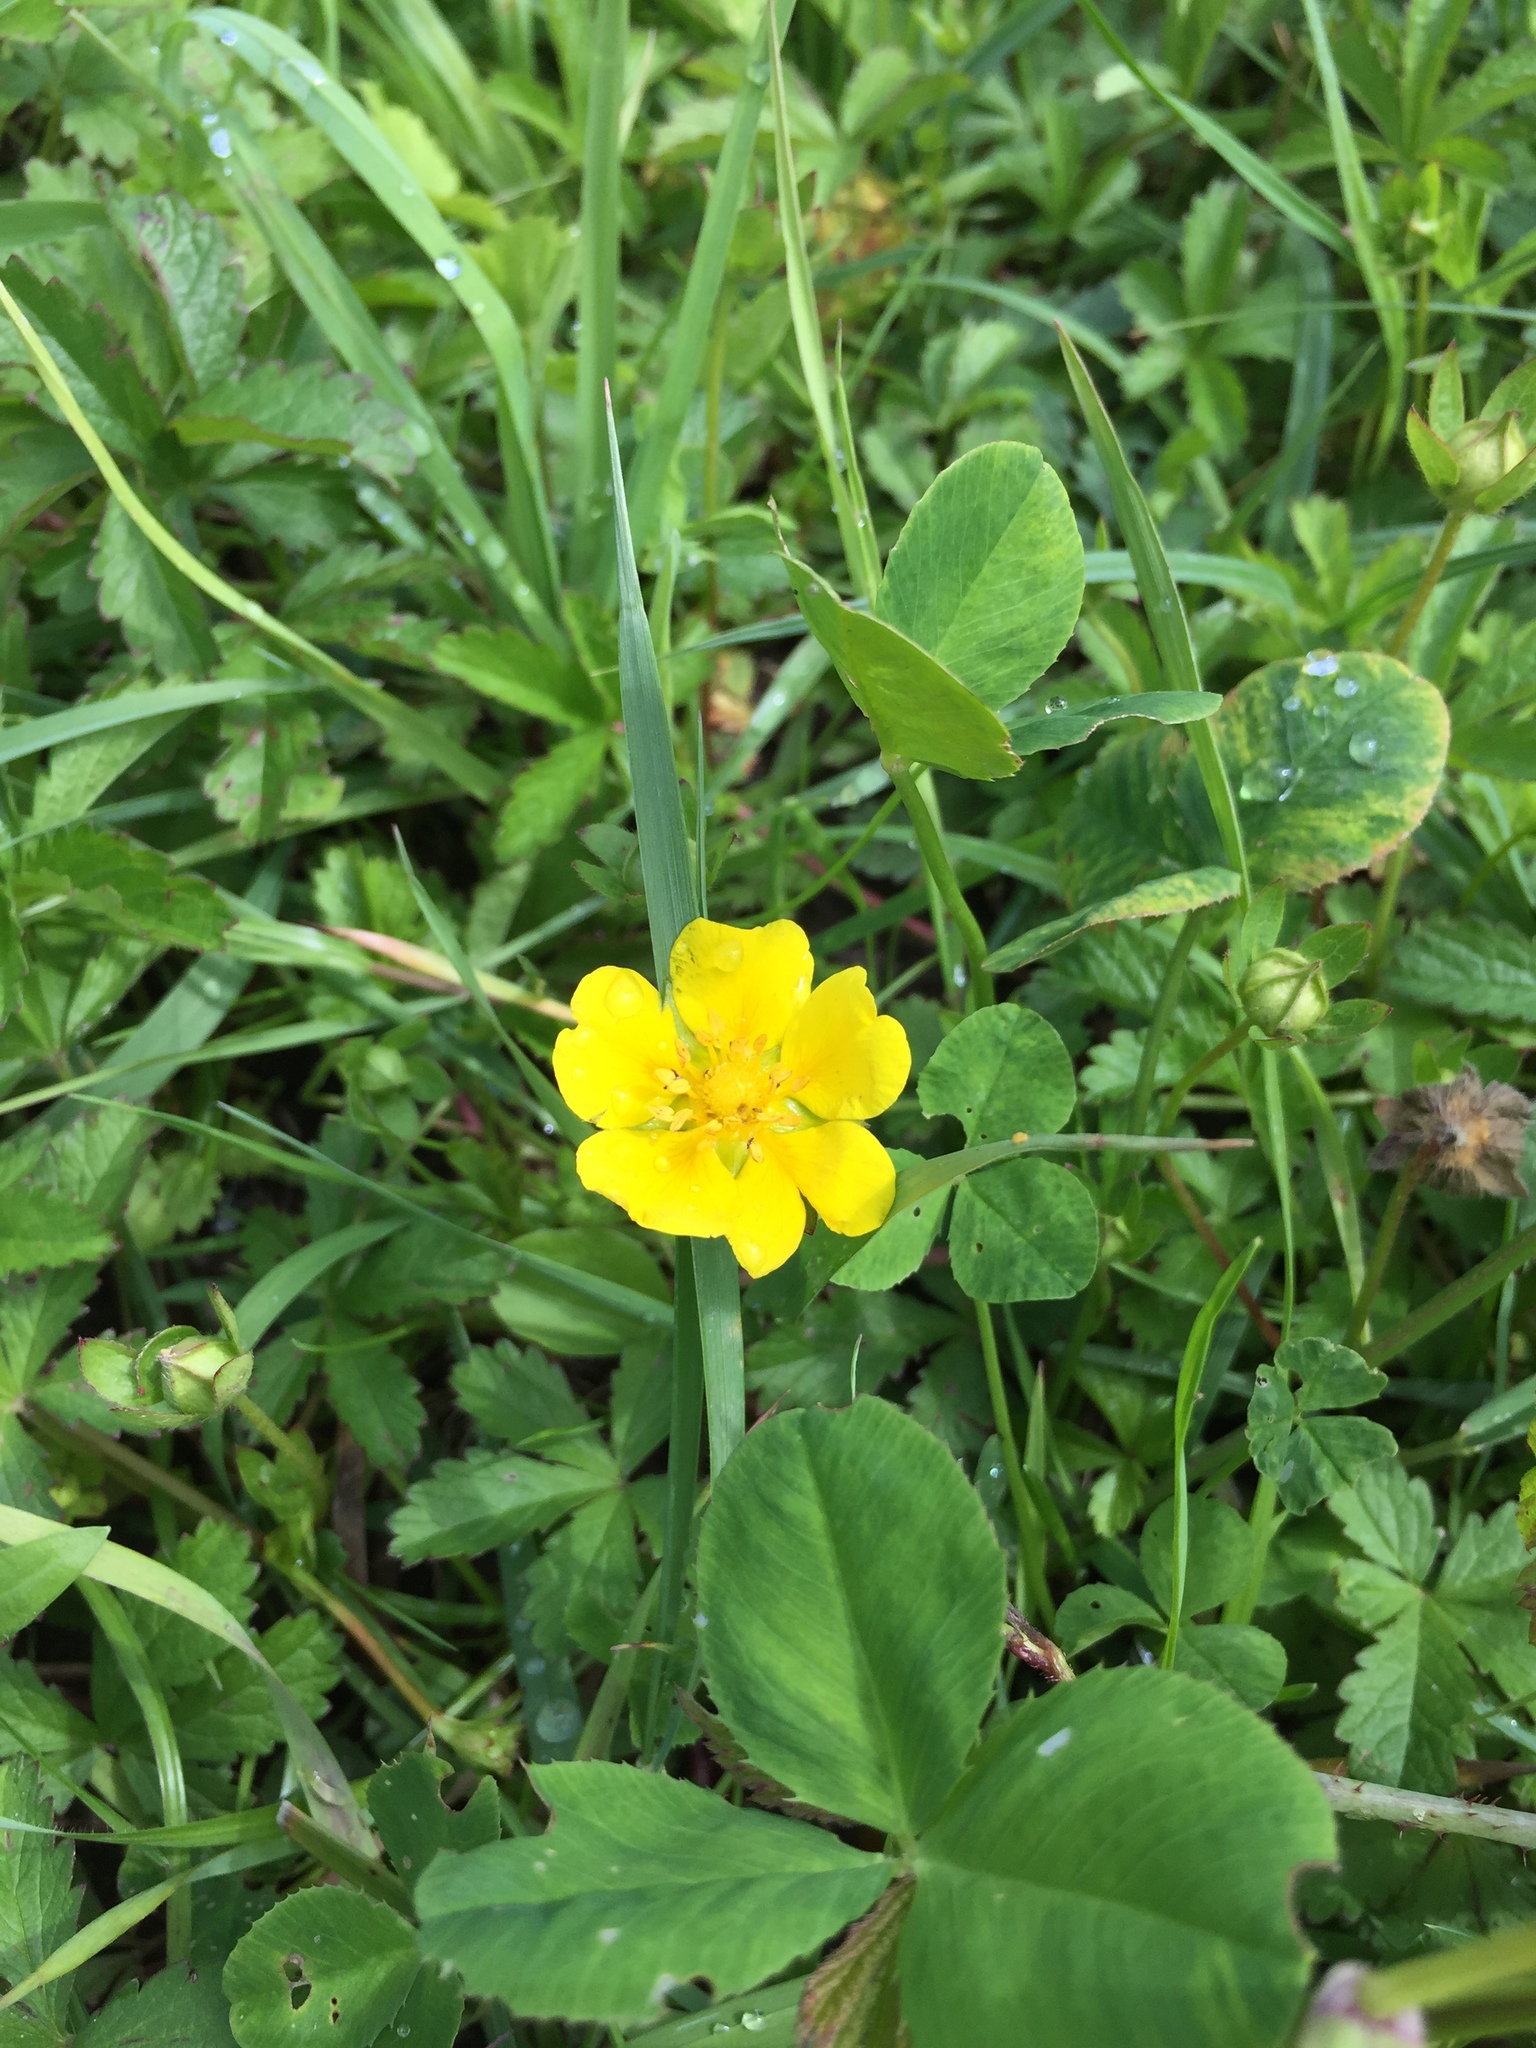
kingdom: Plantae
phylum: Tracheophyta
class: Magnoliopsida
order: Rosales
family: Rosaceae
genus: Potentilla
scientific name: Potentilla reptans
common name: Creeping cinquefoil
